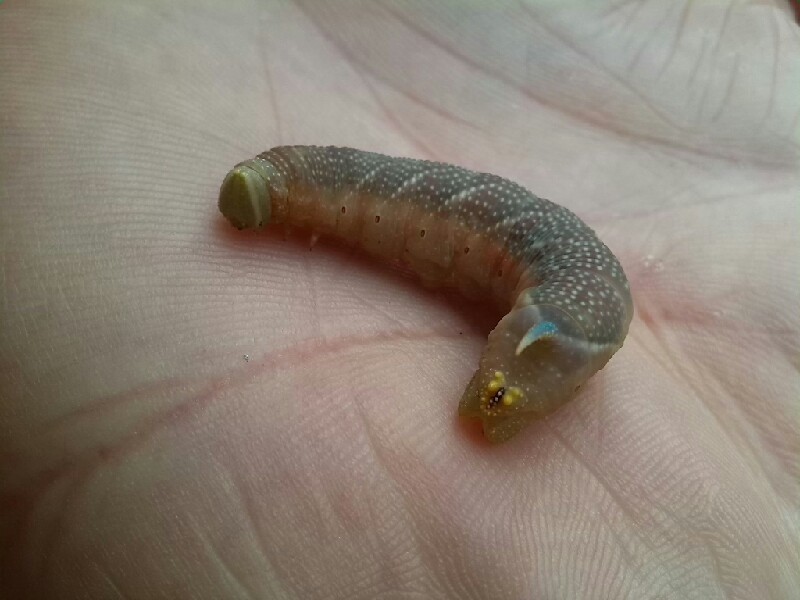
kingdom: Animalia
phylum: Arthropoda
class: Insecta
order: Lepidoptera
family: Sphingidae
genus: Mimas
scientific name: Mimas tiliae
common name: Lime hawk-moth
